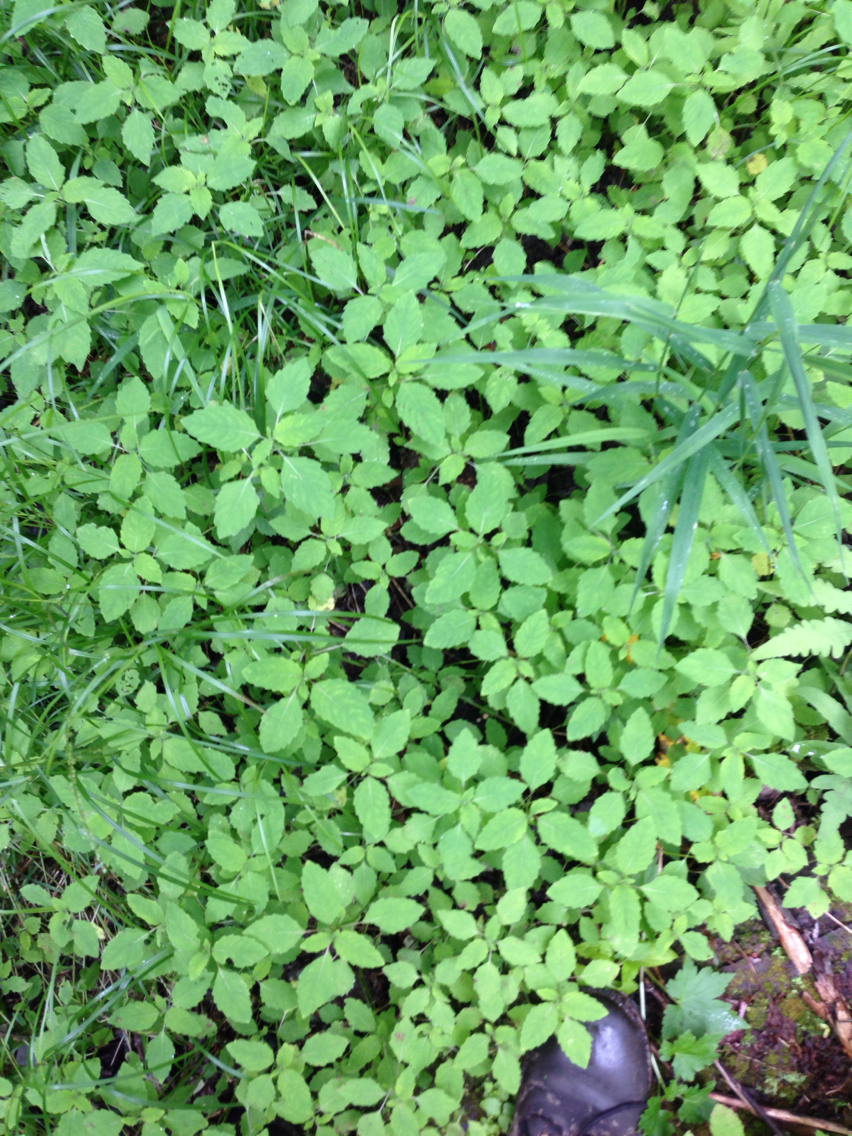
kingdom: Plantae
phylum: Tracheophyta
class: Magnoliopsida
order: Ericales
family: Balsaminaceae
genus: Impatiens
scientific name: Impatiens
